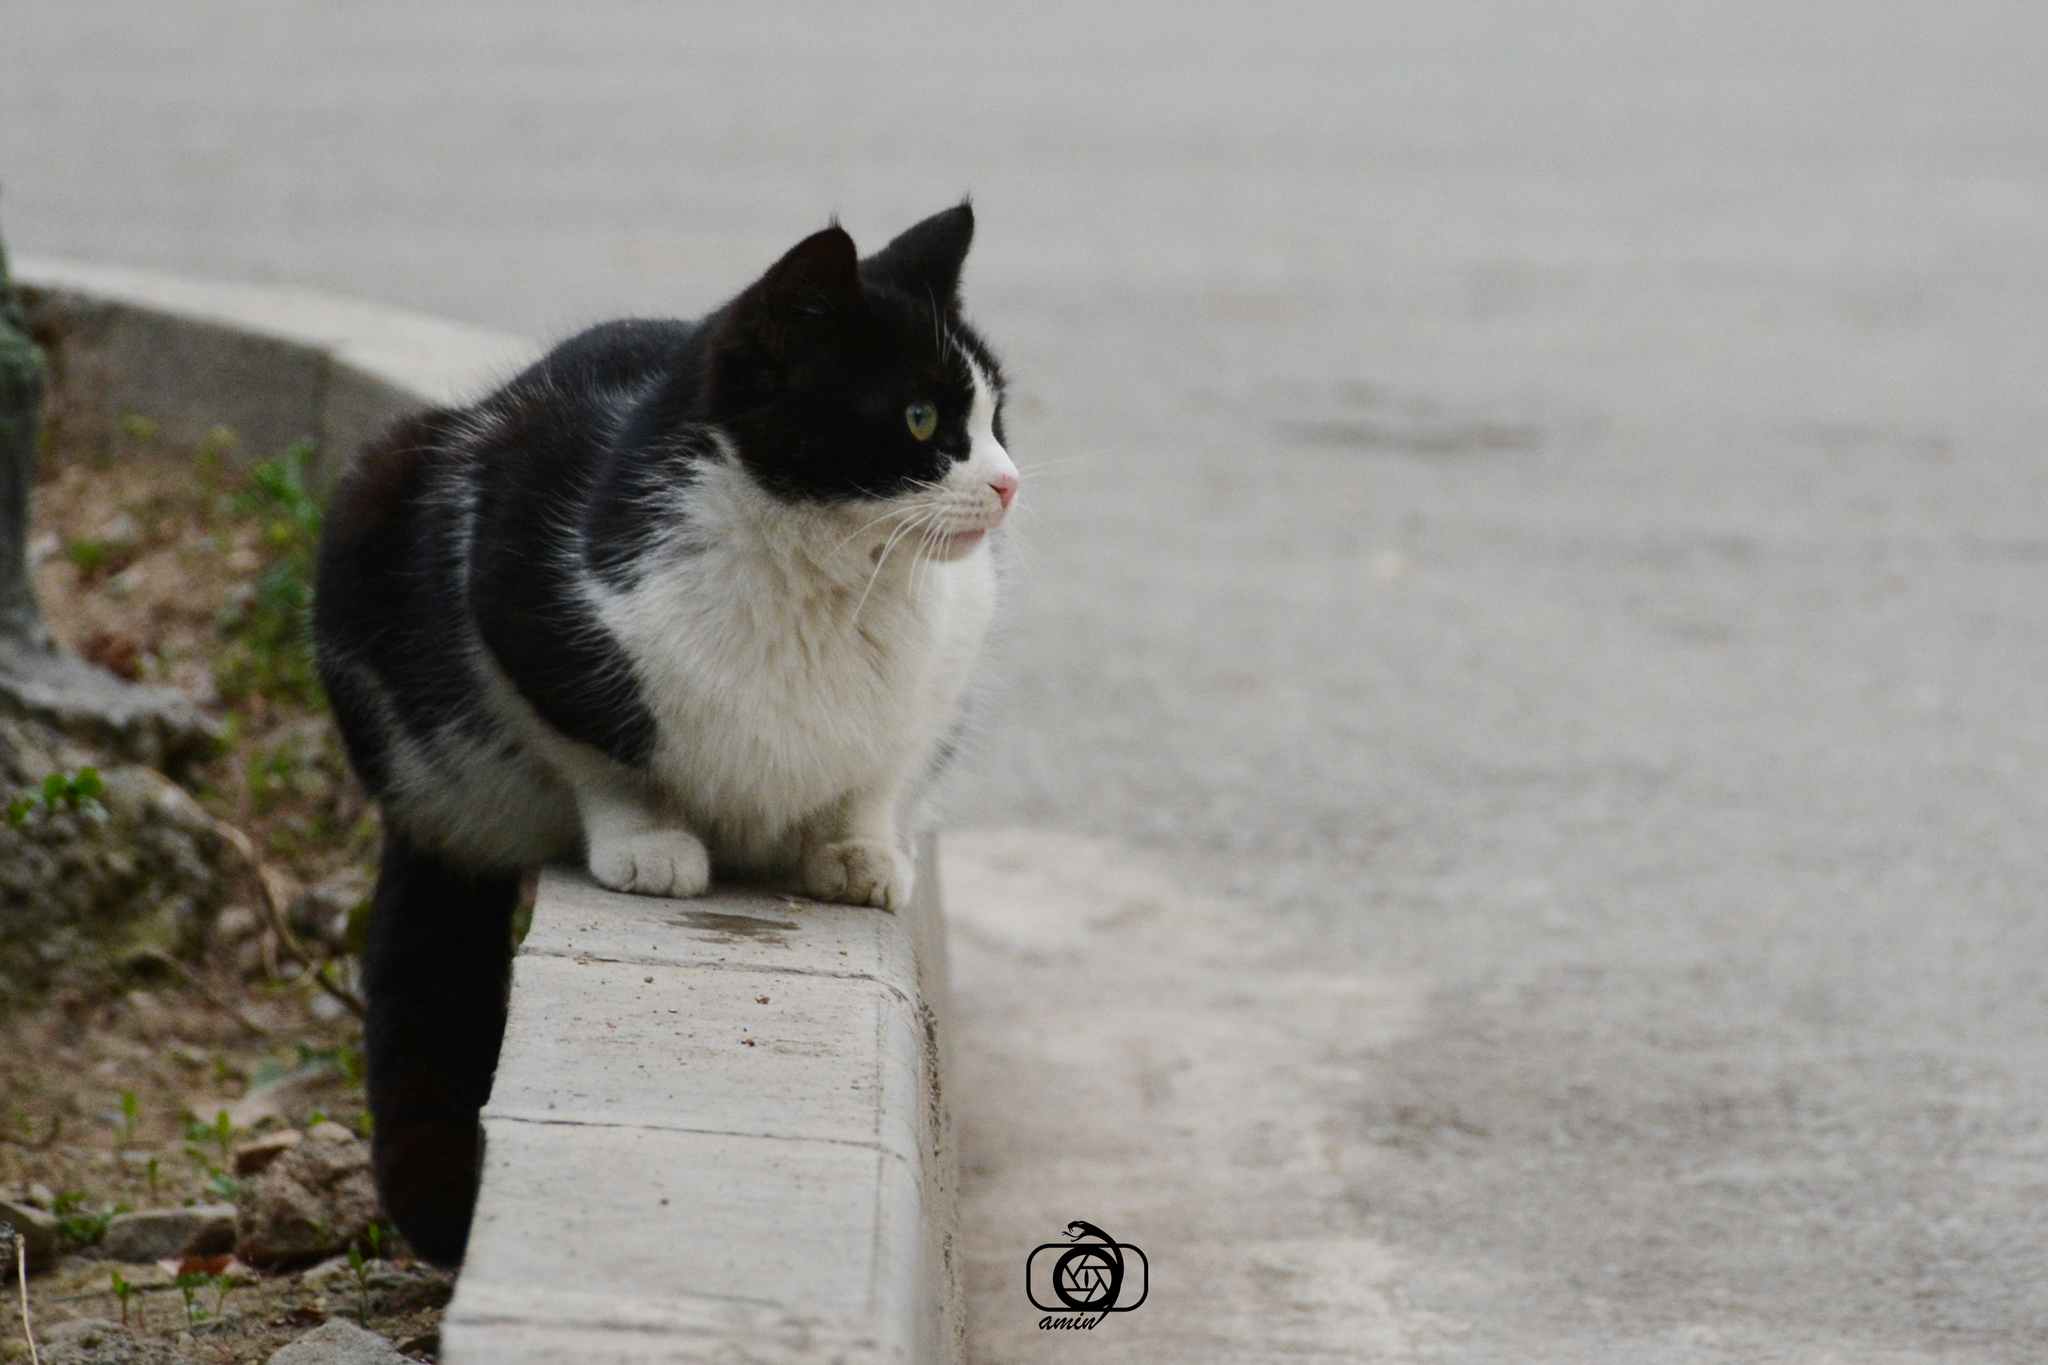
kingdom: Animalia
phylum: Chordata
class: Mammalia
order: Carnivora
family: Felidae
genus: Felis
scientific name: Felis catus
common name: Domestic cat
